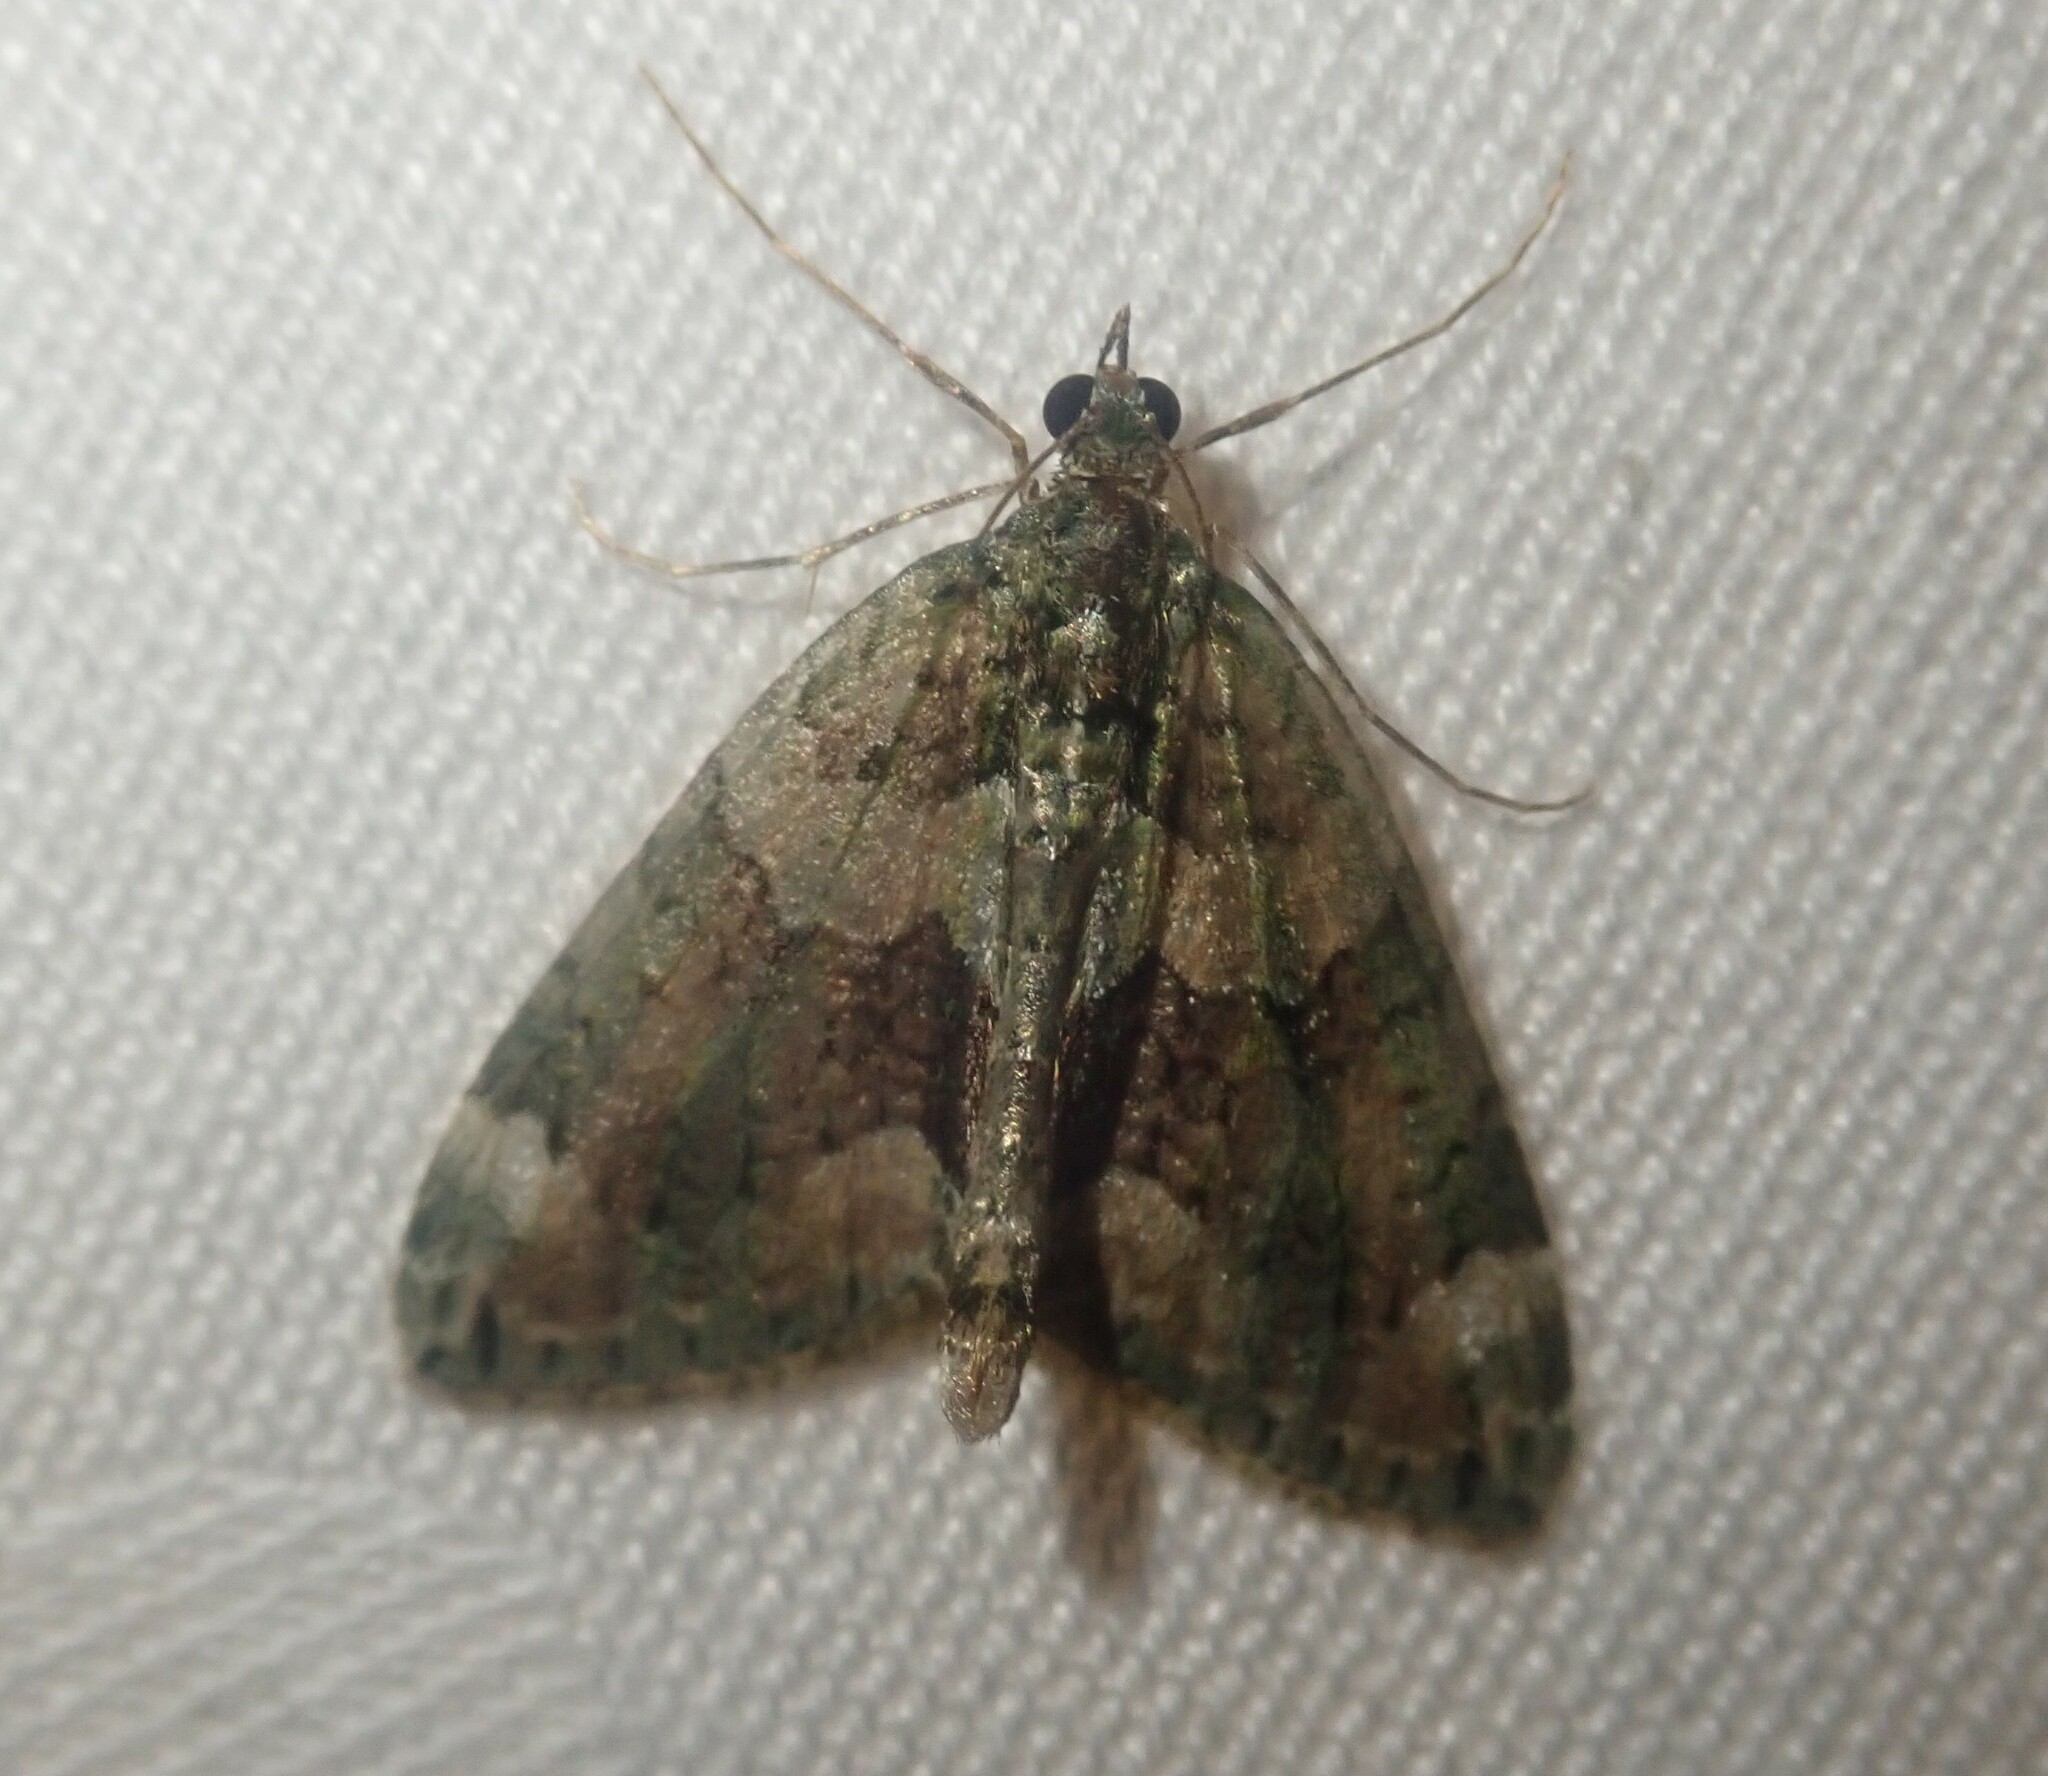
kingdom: Animalia
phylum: Arthropoda
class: Insecta
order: Lepidoptera
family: Geometridae
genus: Chloroclysta
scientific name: Chloroclysta siterata
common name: Red-green carpet
